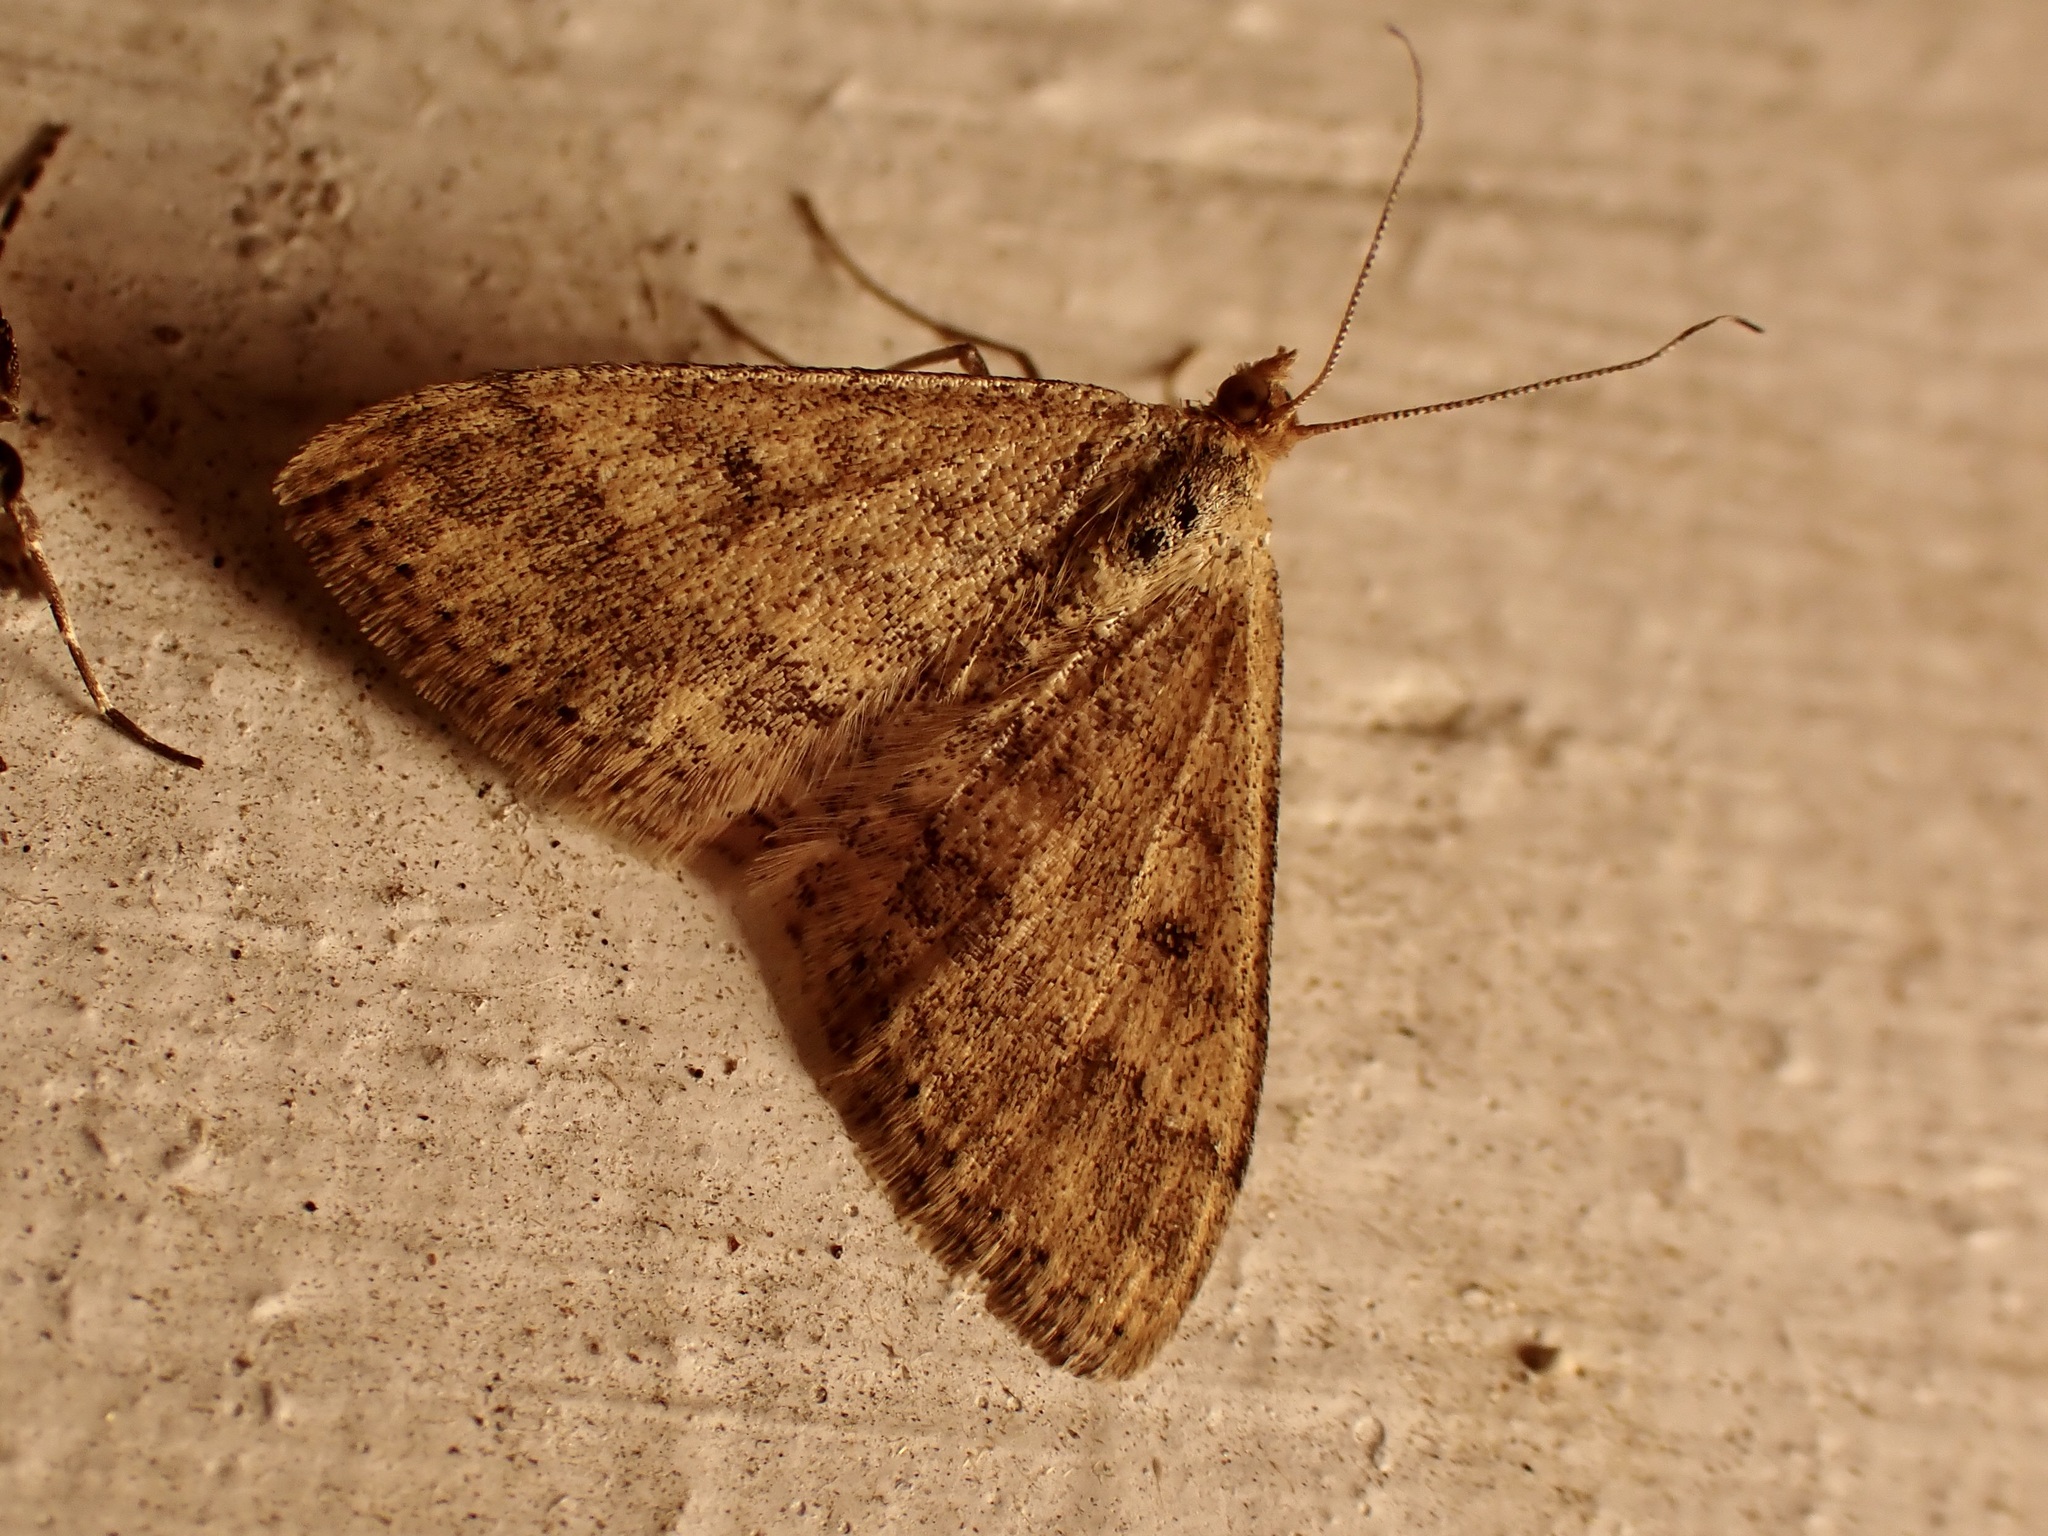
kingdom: Animalia
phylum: Arthropoda
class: Insecta
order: Lepidoptera
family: Geometridae
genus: Scopula
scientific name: Scopula rubraria
